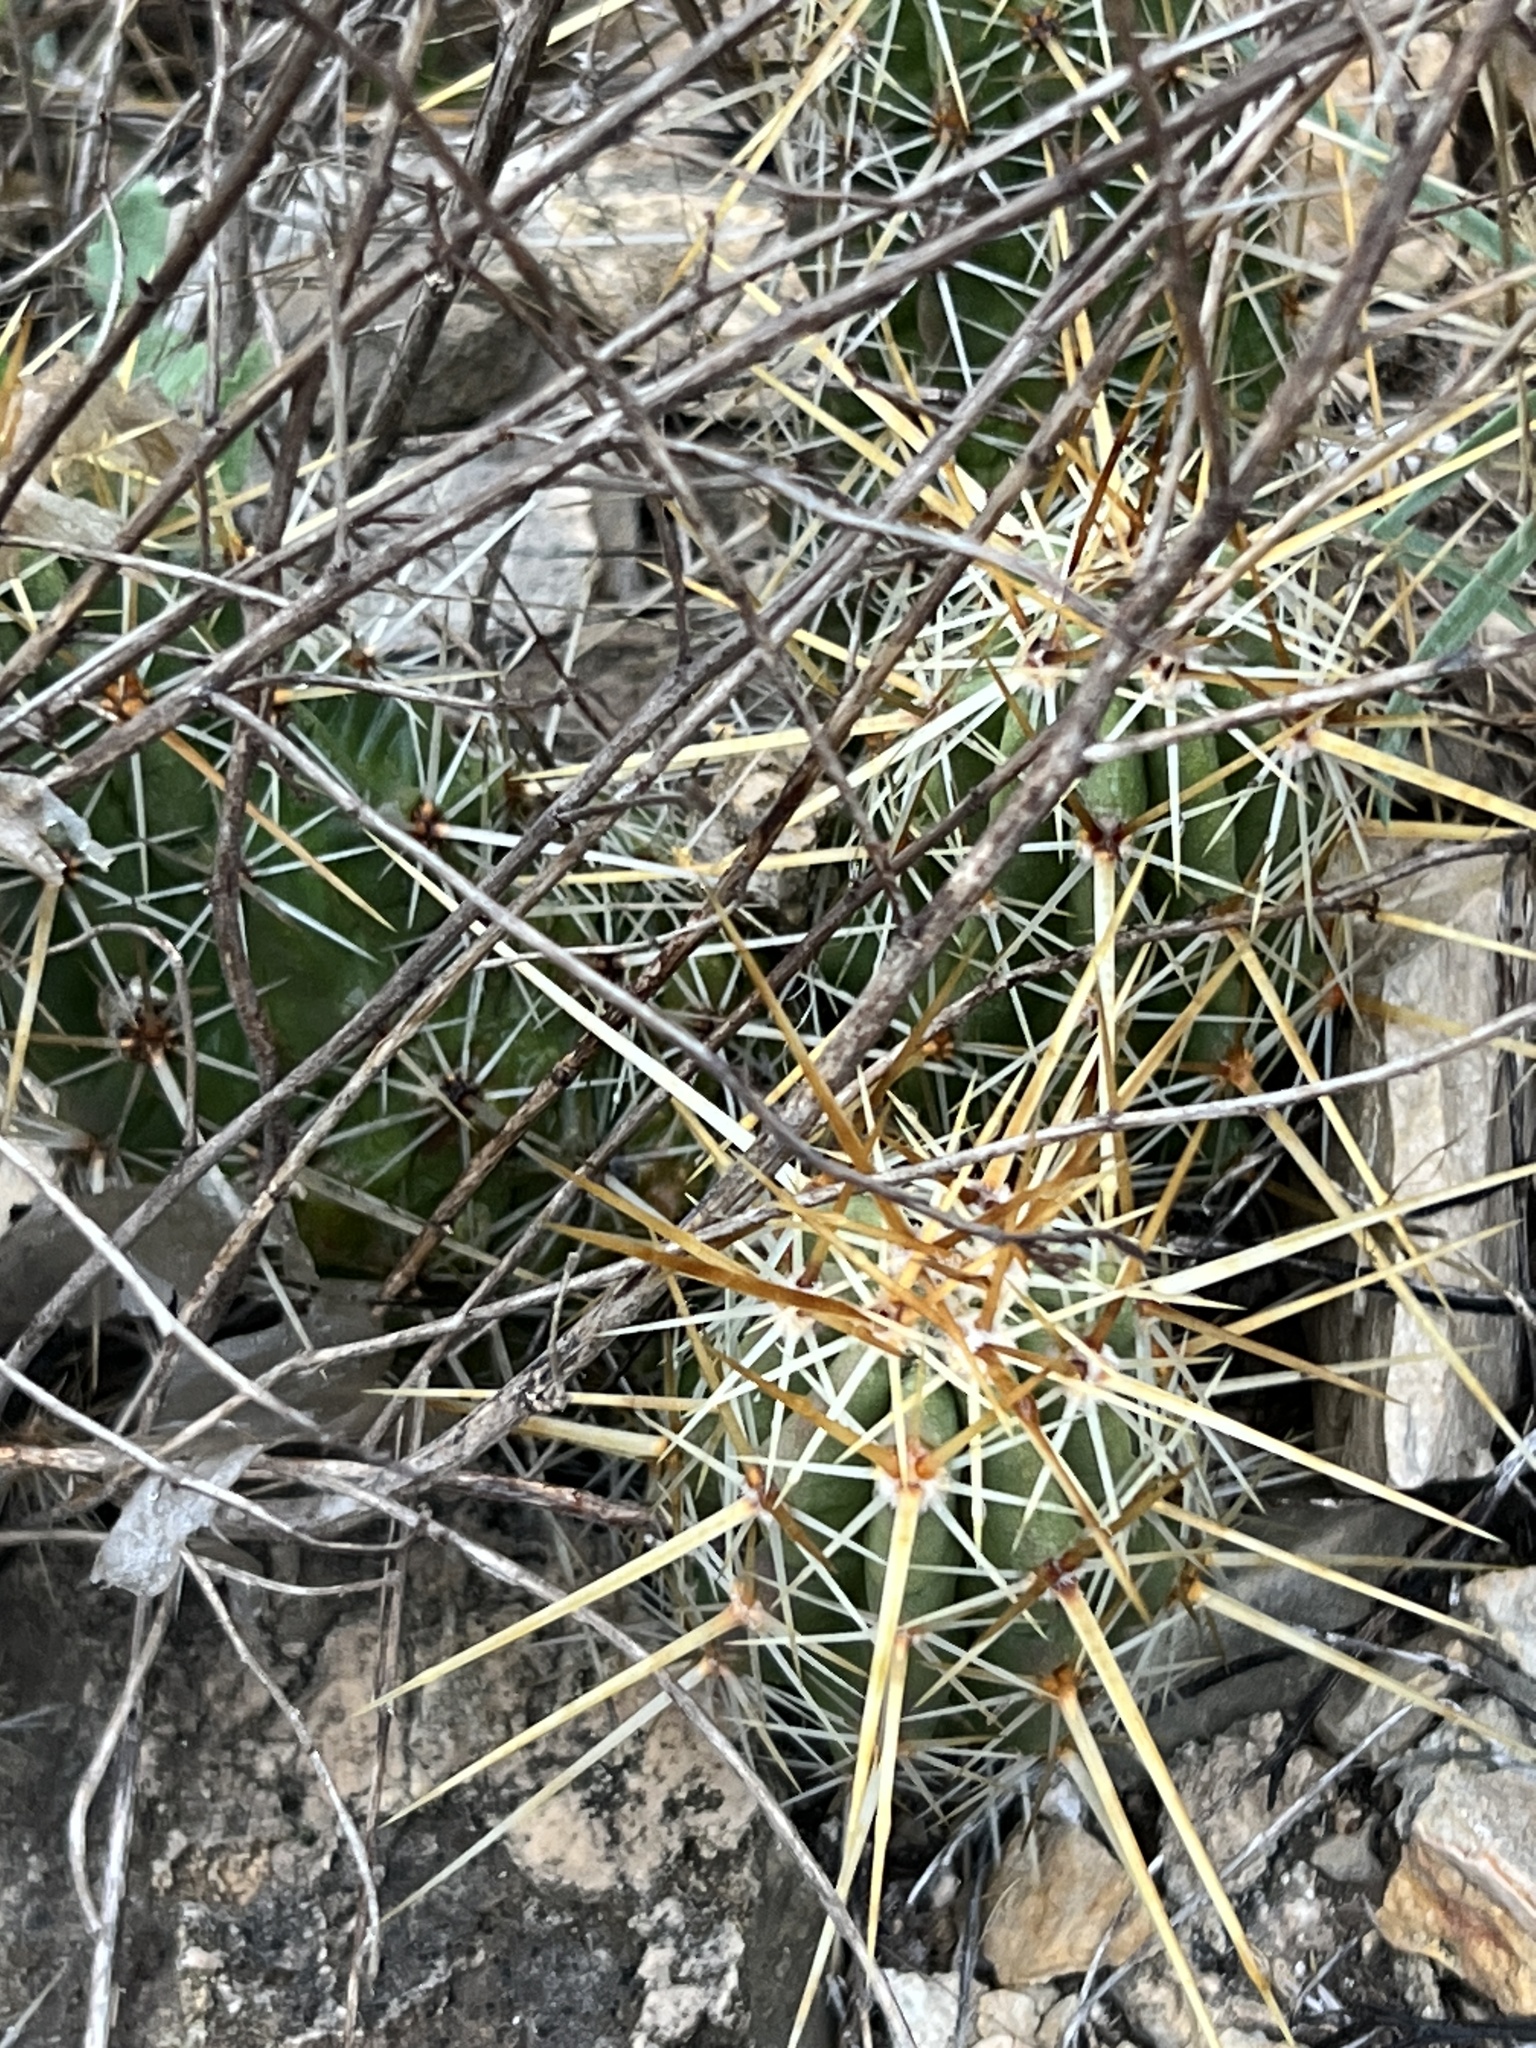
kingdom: Plantae
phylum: Tracheophyta
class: Magnoliopsida
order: Caryophyllales
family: Cactaceae
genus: Echinocereus
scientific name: Echinocereus enneacanthus
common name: Pitaya
